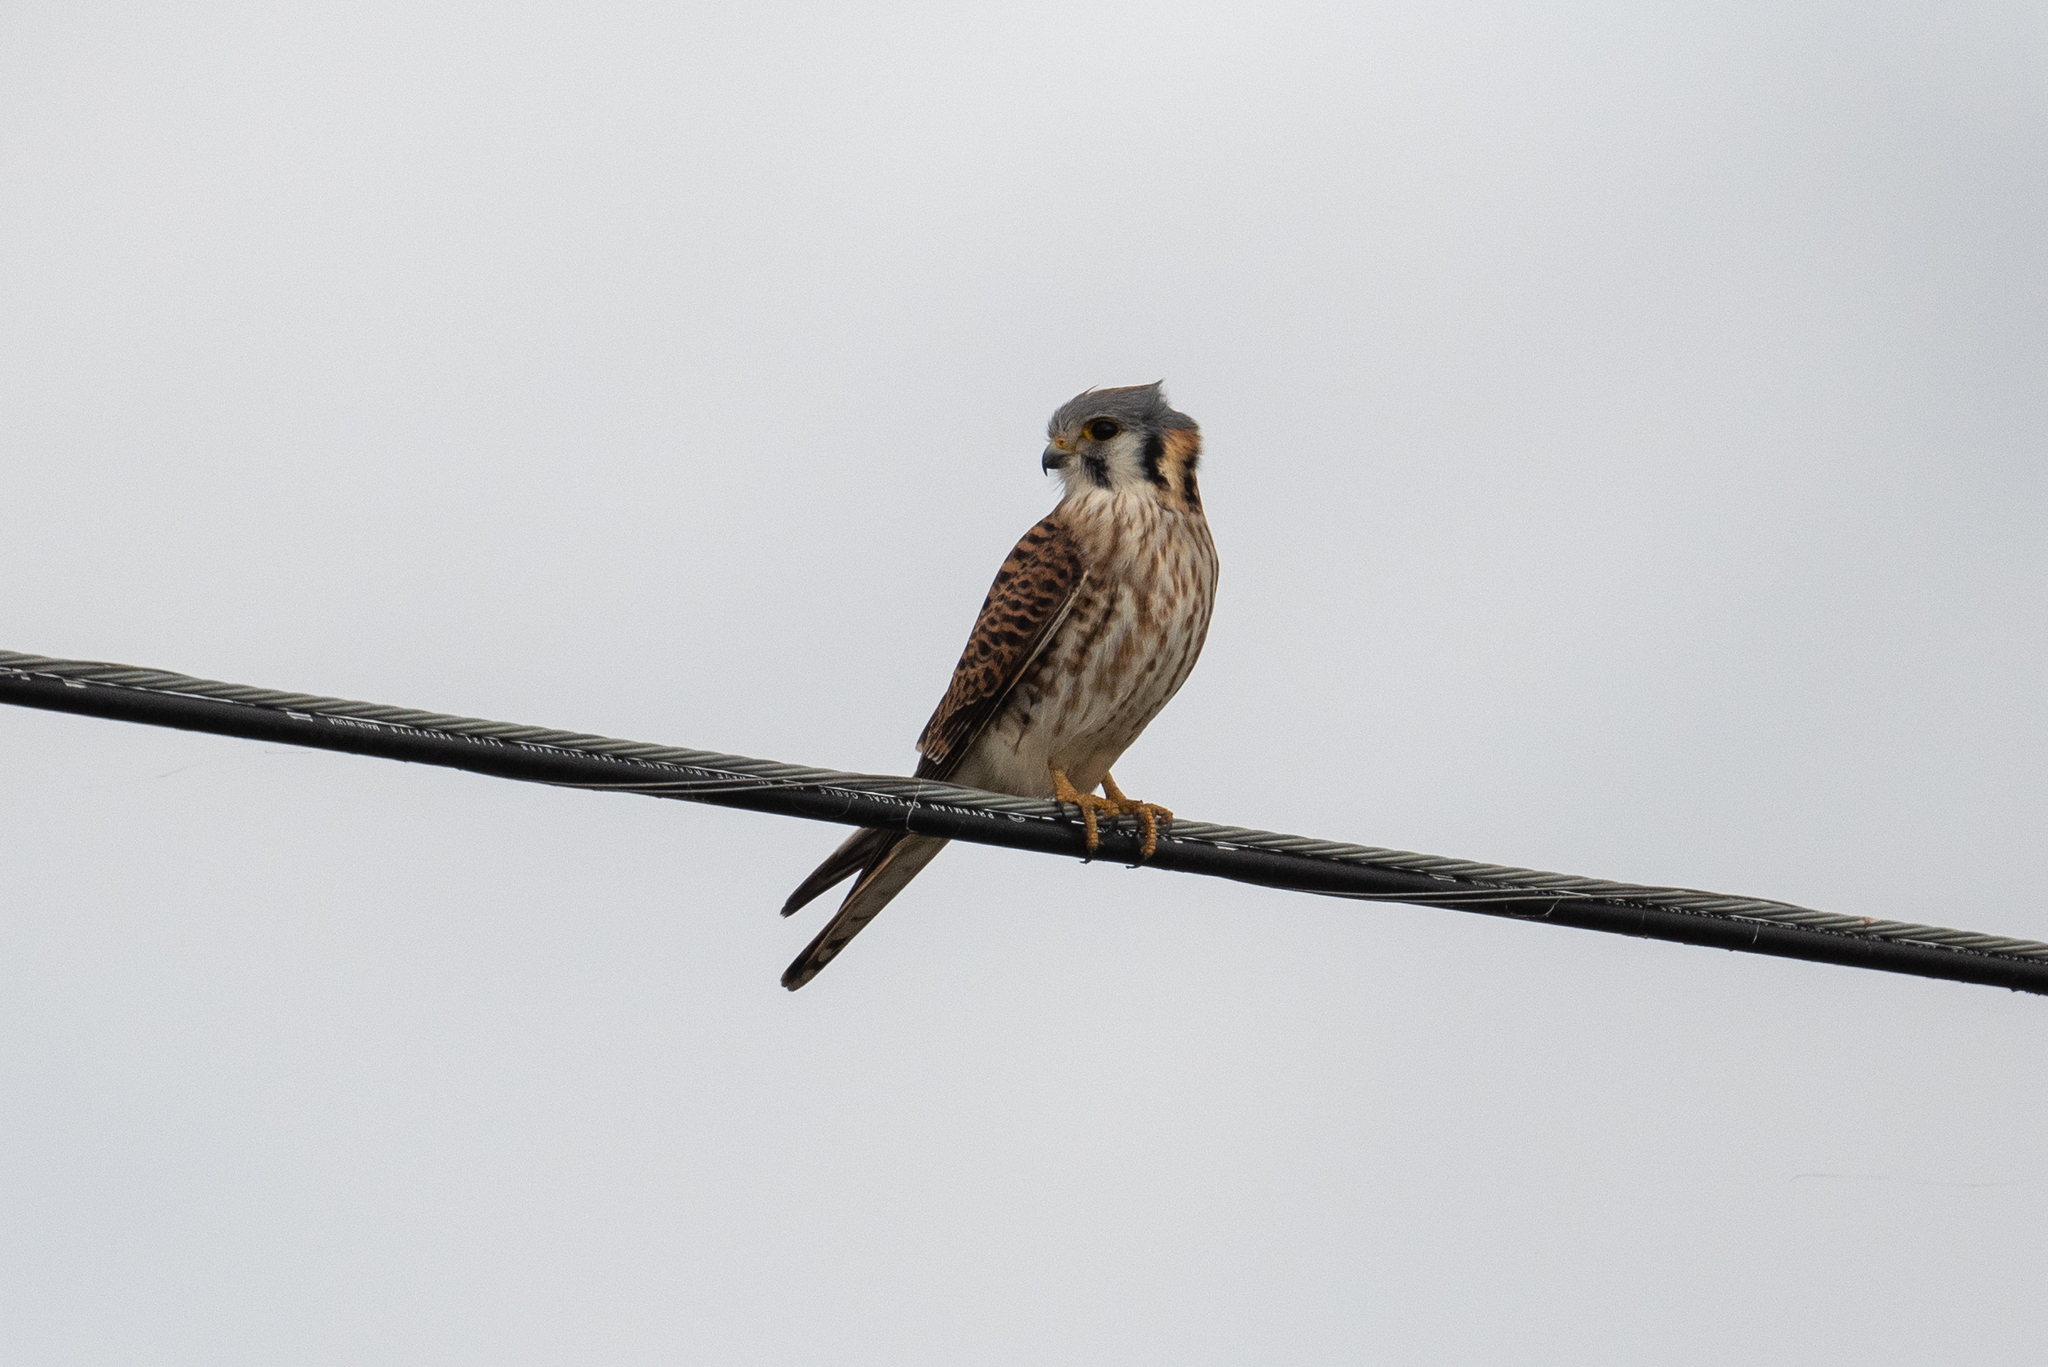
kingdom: Animalia
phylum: Chordata
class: Aves
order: Falconiformes
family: Falconidae
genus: Falco
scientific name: Falco sparverius
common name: American kestrel
